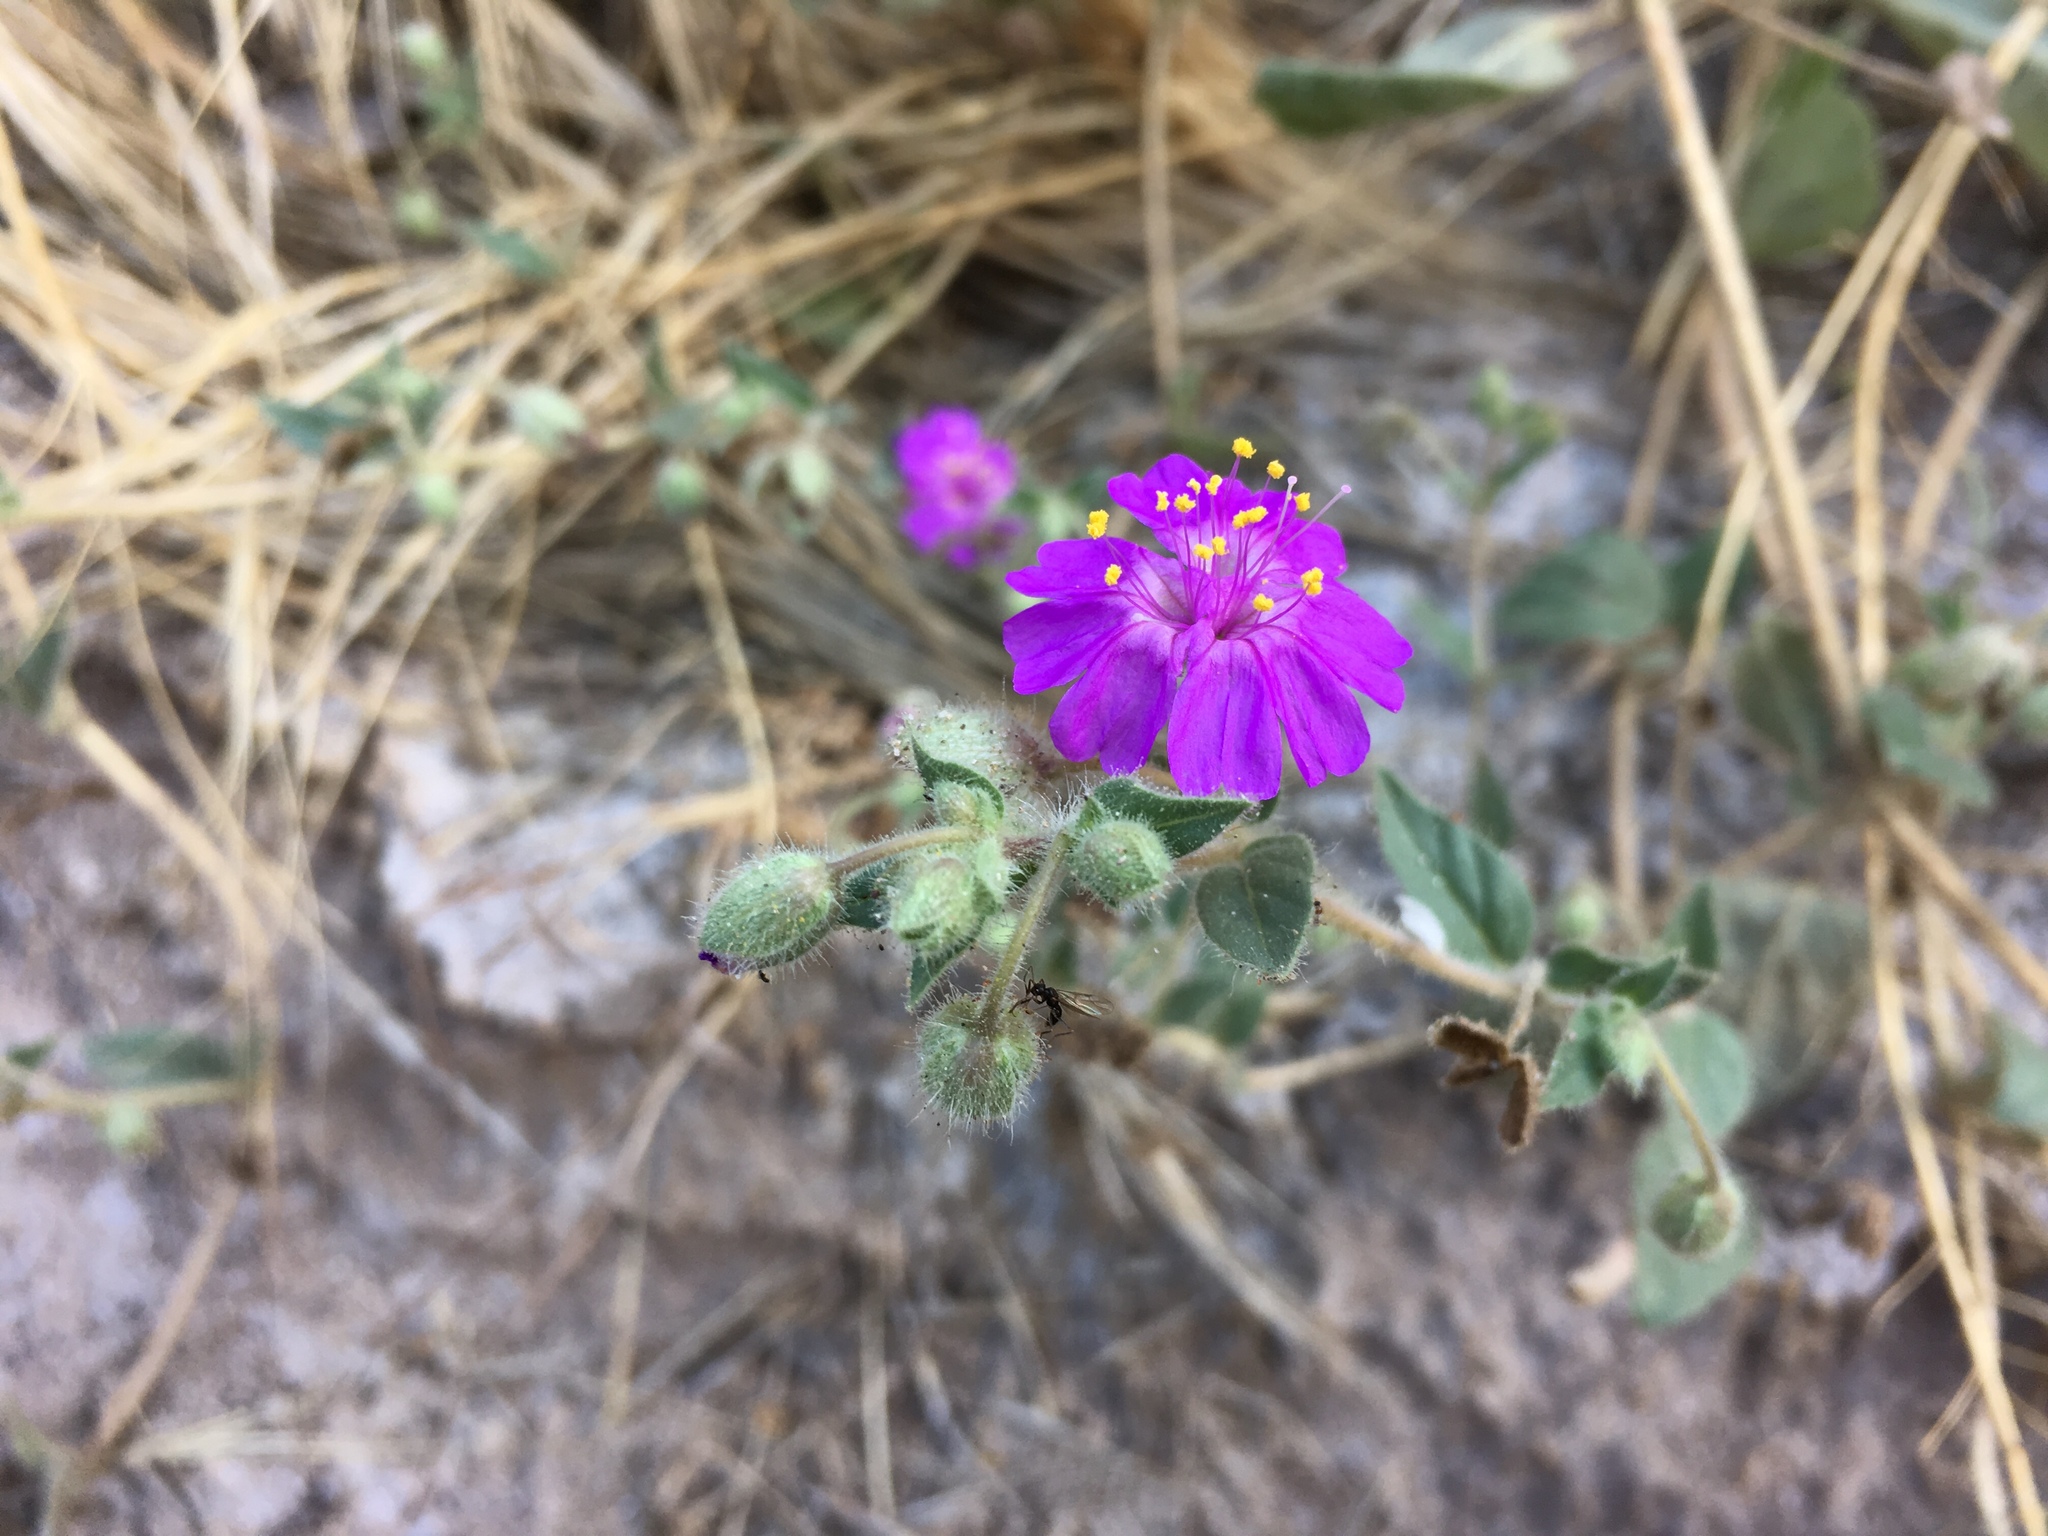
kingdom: Plantae
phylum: Tracheophyta
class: Magnoliopsida
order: Caryophyllales
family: Nyctaginaceae
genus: Allionia
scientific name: Allionia incarnata
